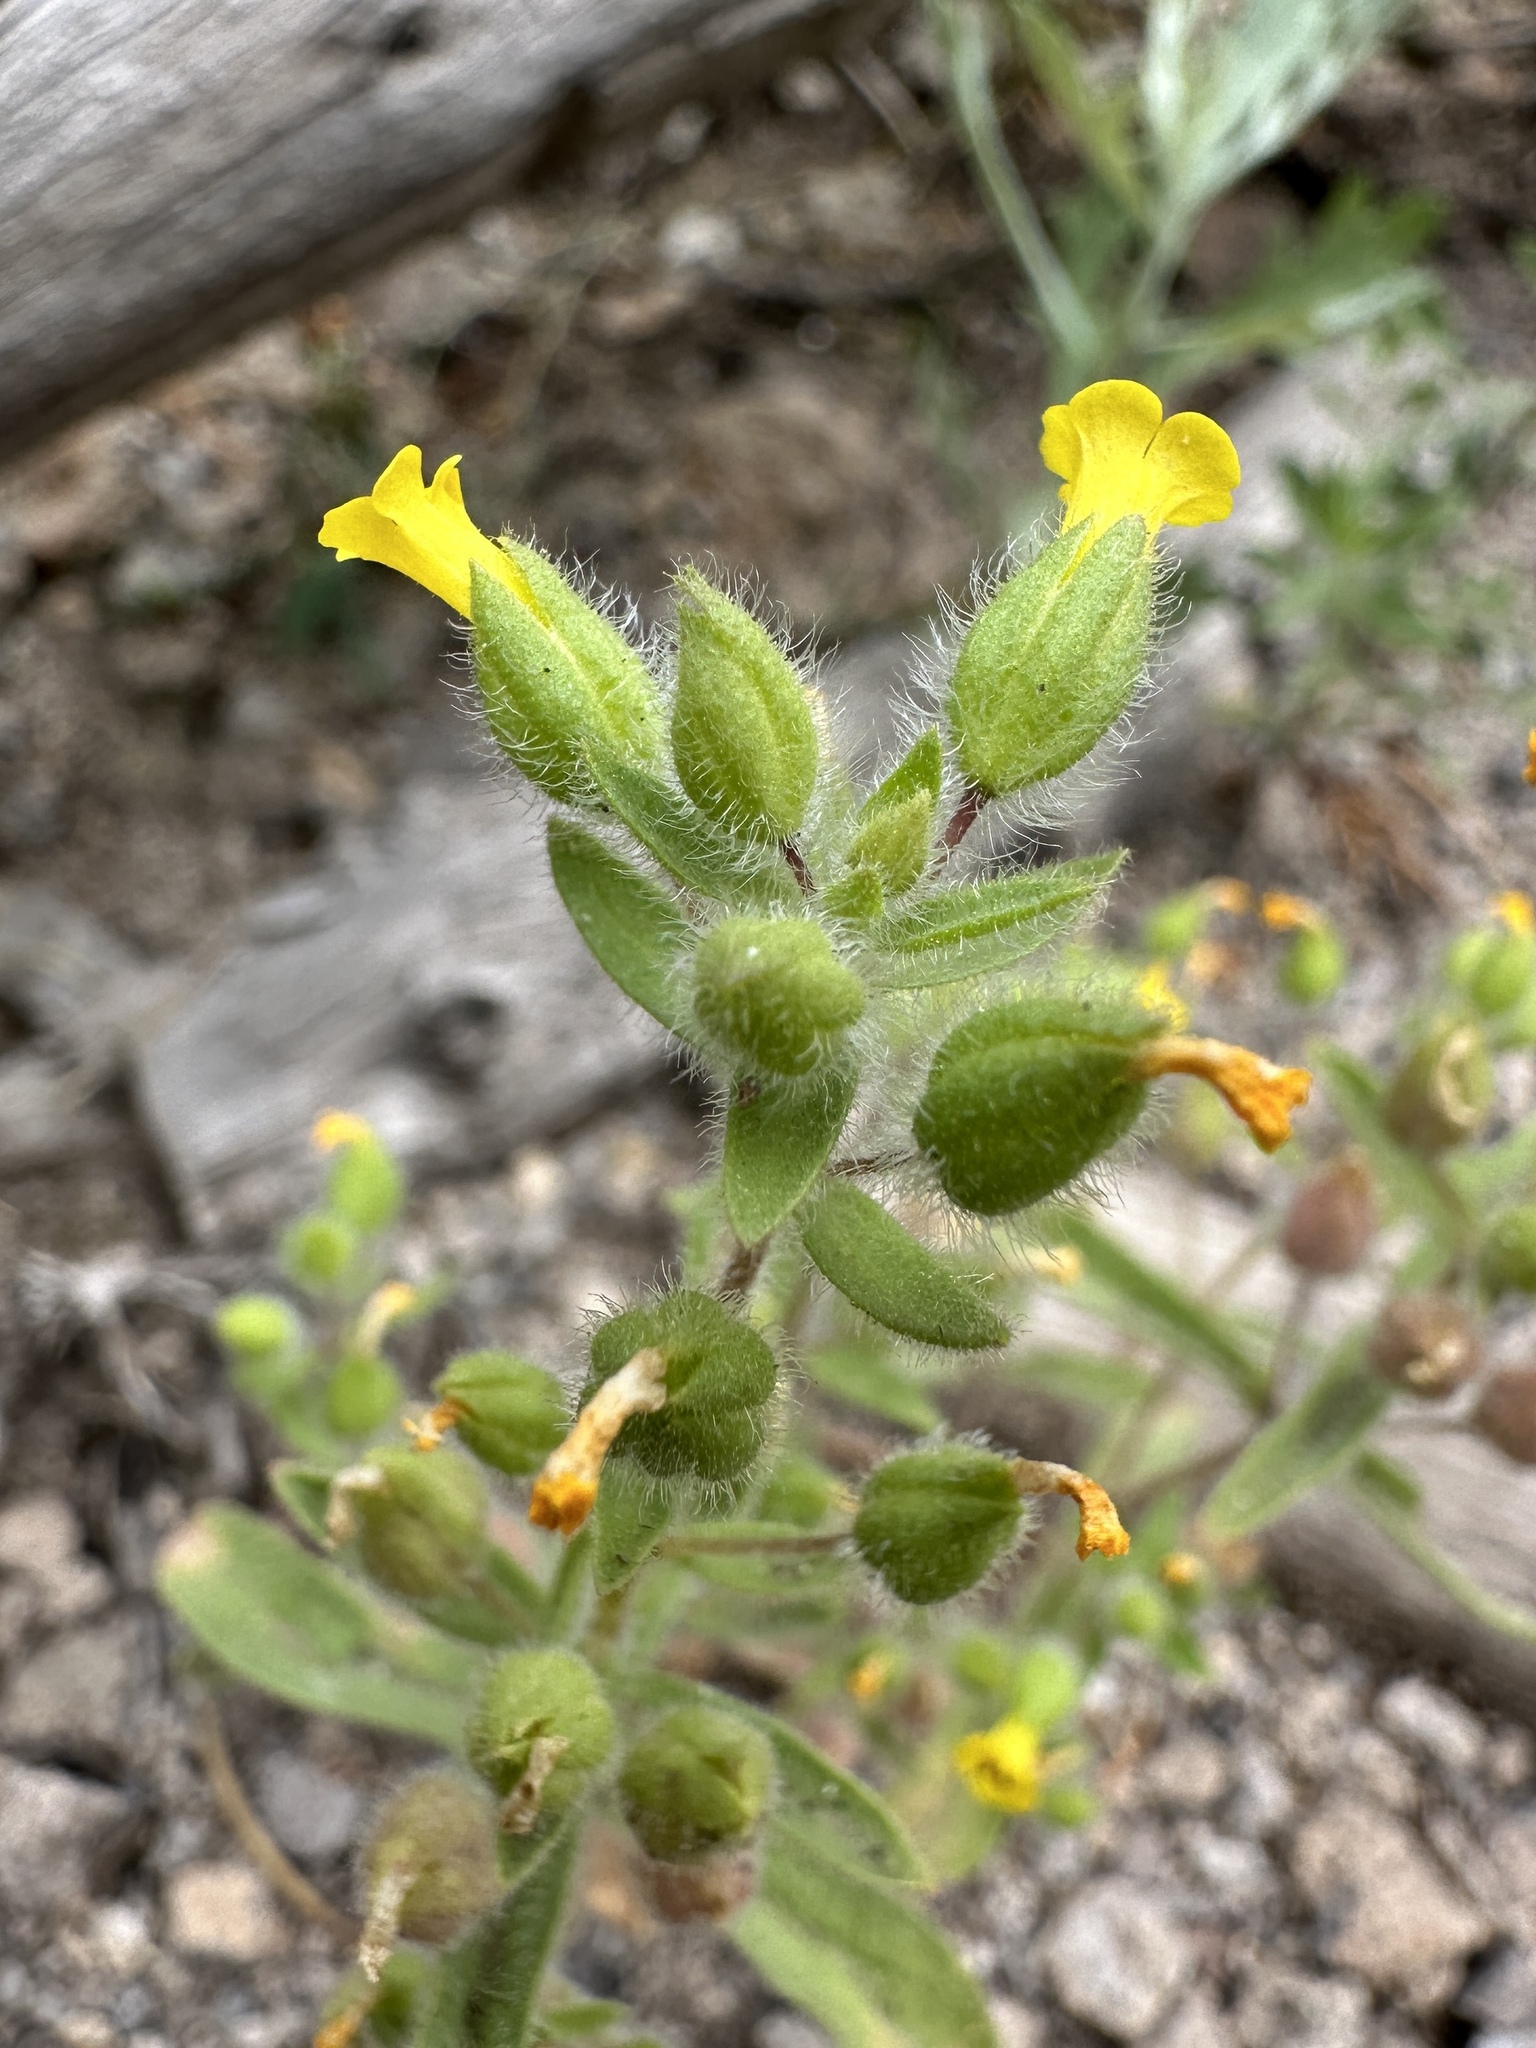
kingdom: Plantae
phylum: Tracheophyta
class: Magnoliopsida
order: Lamiales
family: Phrymaceae
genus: Mimetanthe
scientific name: Mimetanthe pilosa
